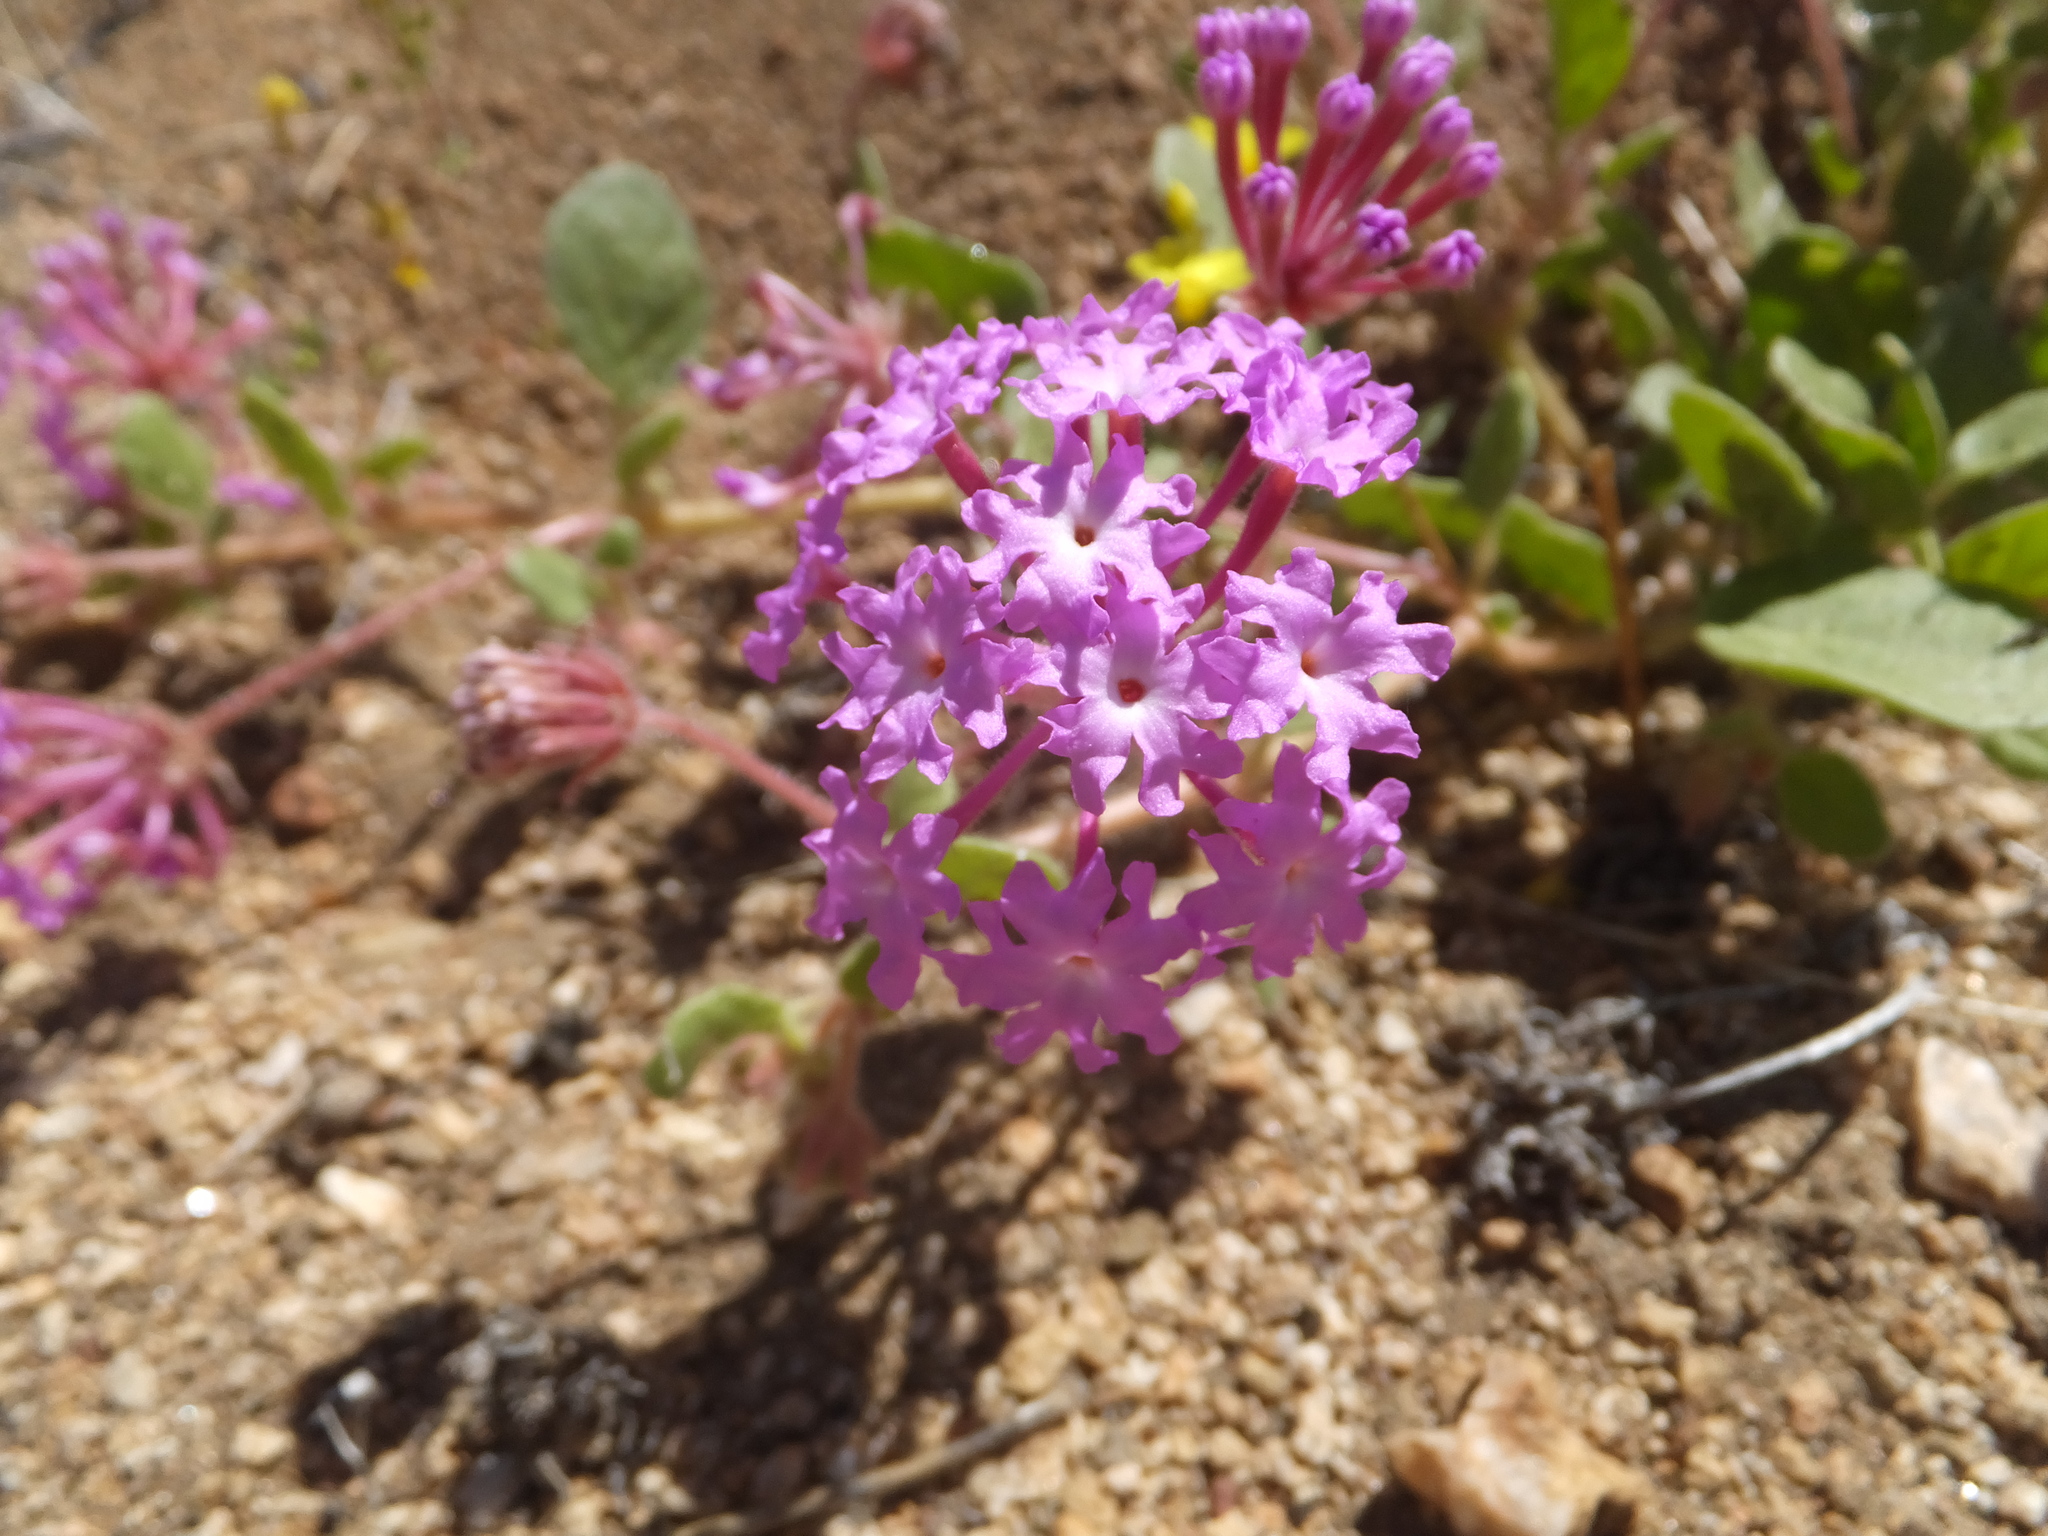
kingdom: Plantae
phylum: Tracheophyta
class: Magnoliopsida
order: Caryophyllales
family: Nyctaginaceae
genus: Abronia
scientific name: Abronia villosa
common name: Desert sand-verbena
